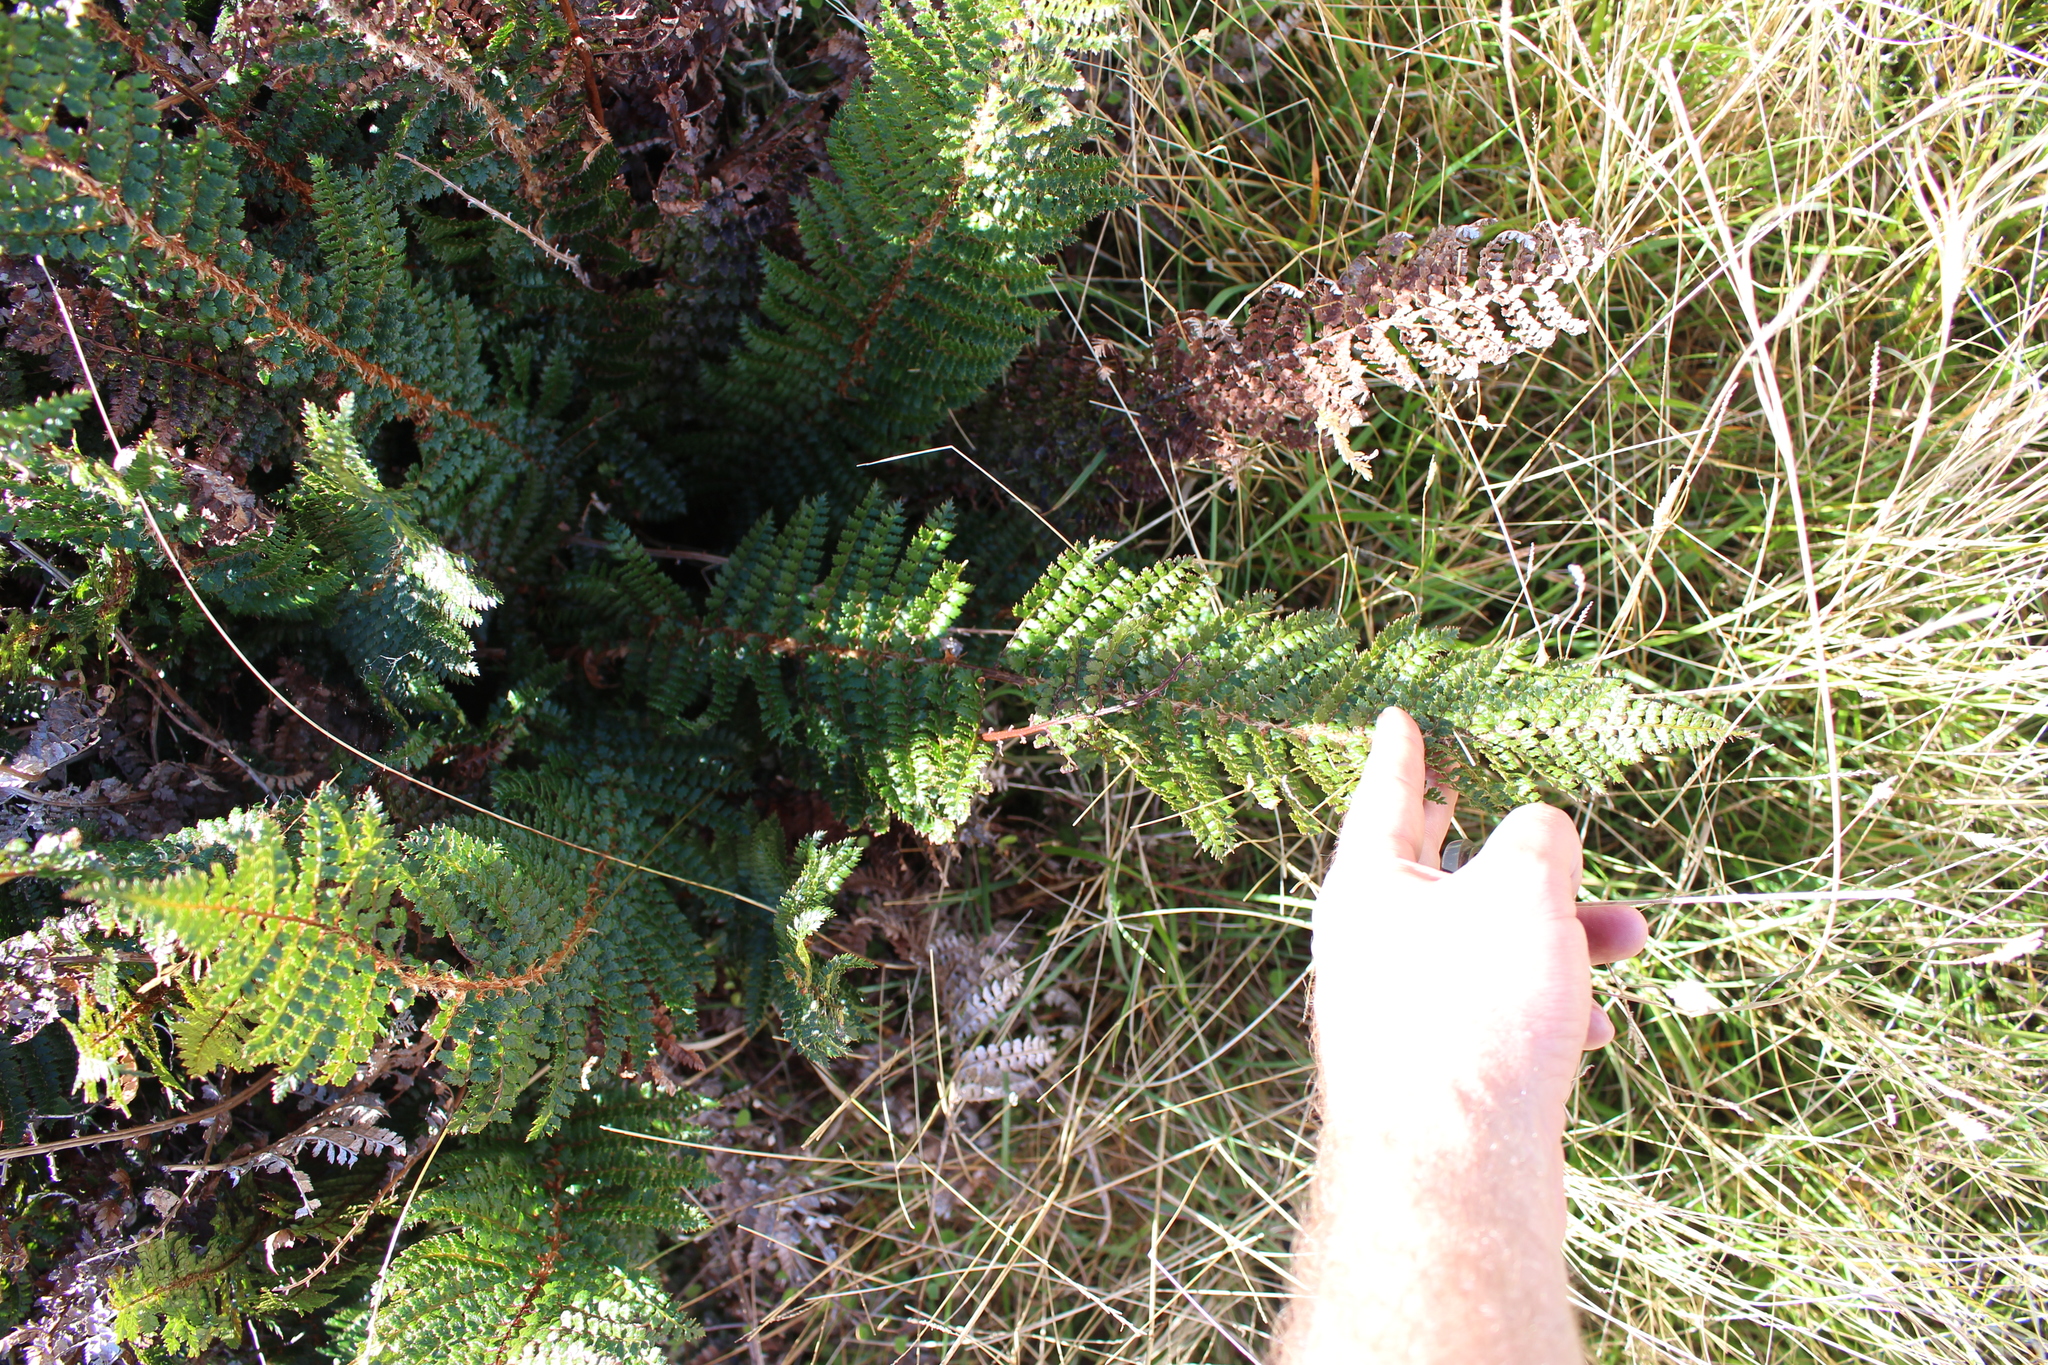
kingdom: Plantae
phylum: Tracheophyta
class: Polypodiopsida
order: Polypodiales
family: Dryopteridaceae
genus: Polystichum
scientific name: Polystichum vestitum
